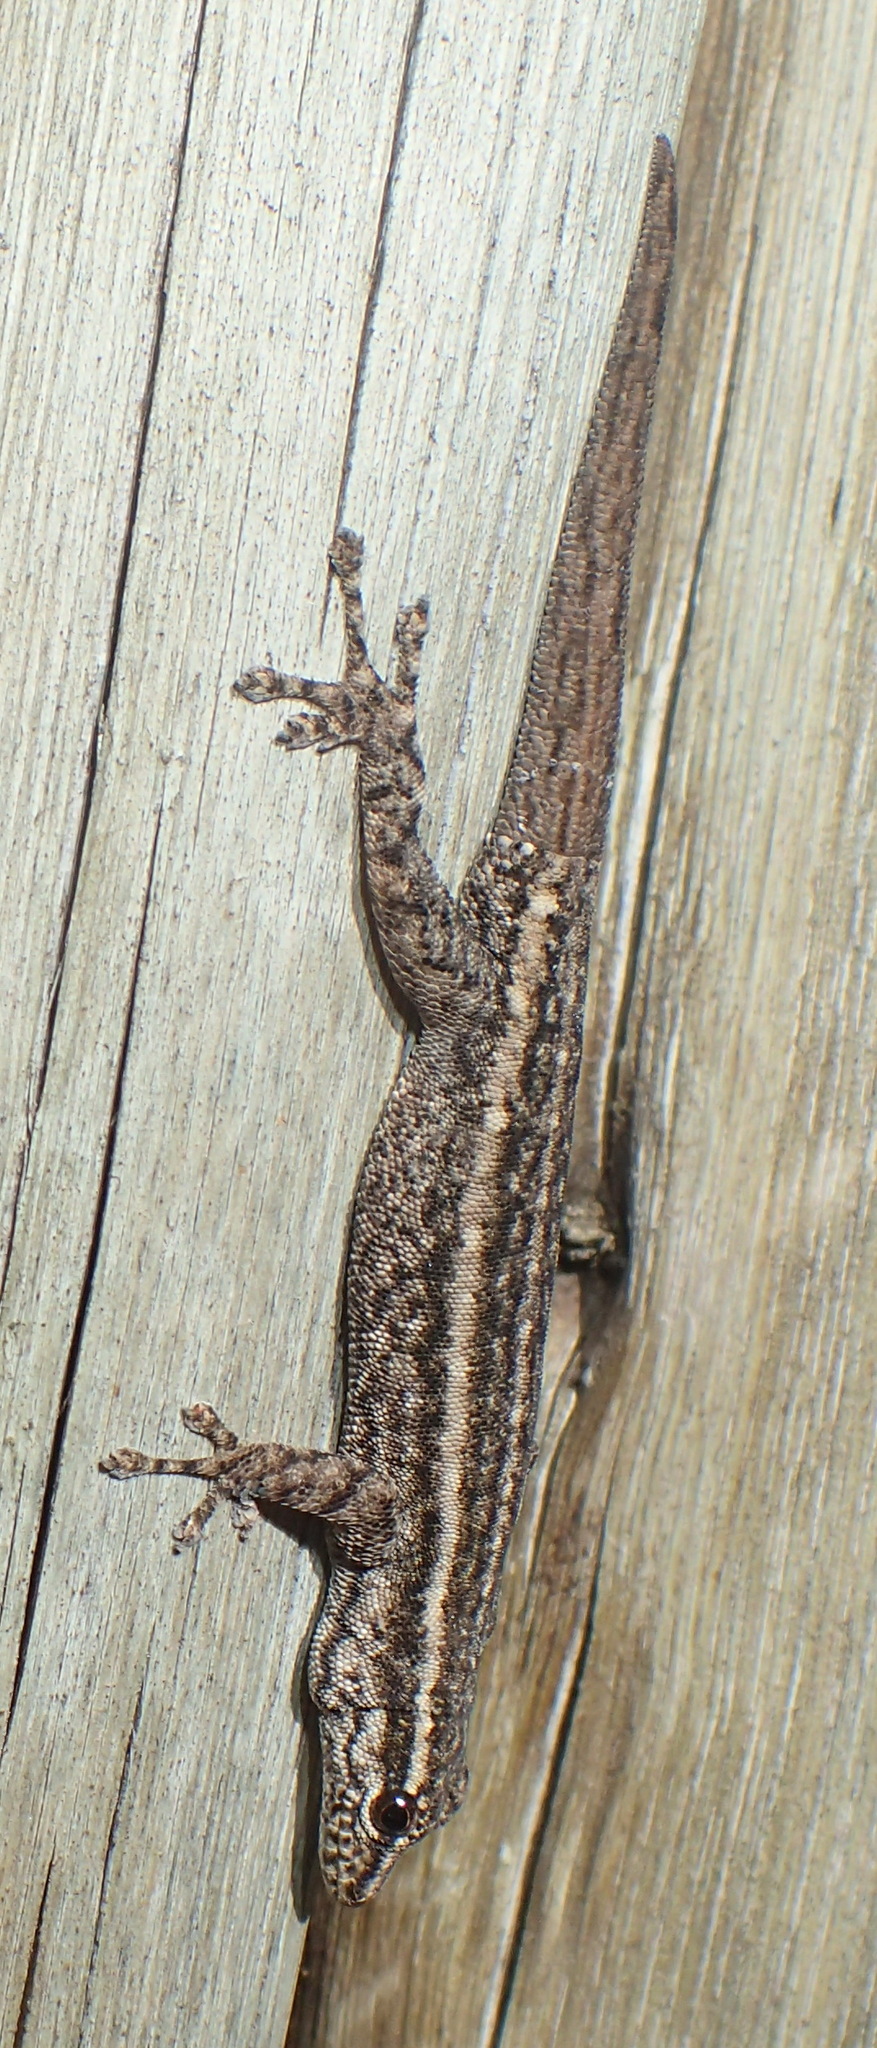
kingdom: Animalia
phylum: Chordata
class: Squamata
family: Gekkonidae
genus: Lygodactylus
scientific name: Lygodactylus capensis
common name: Cape dwarf gecko
